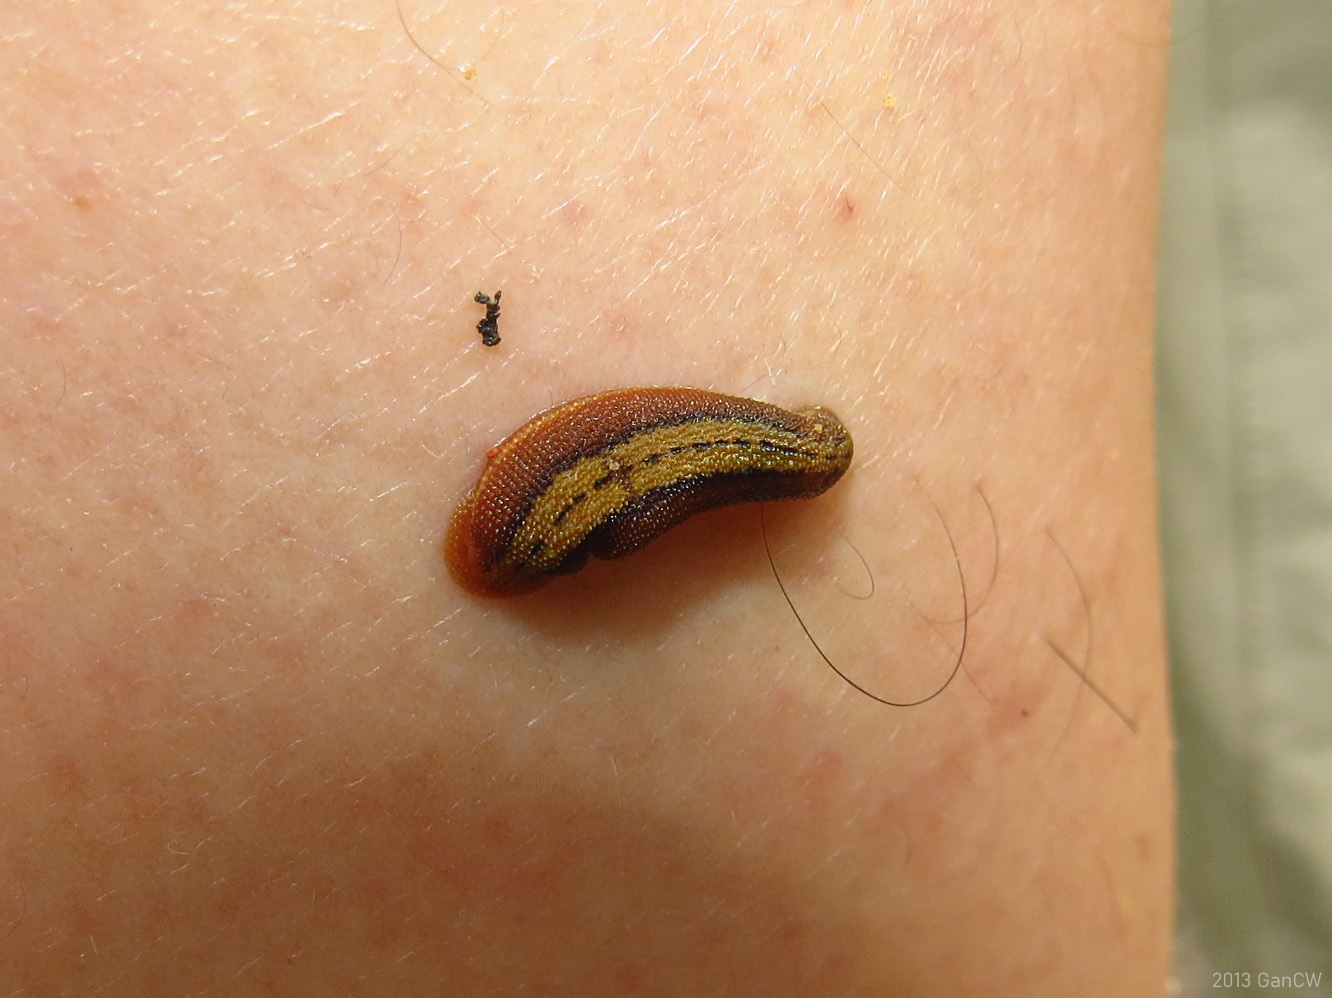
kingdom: Animalia
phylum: Annelida
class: Clitellata
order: Arhynchobdellida
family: Haemadipsidae
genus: Haemadipsa
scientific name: Haemadipsa picta
